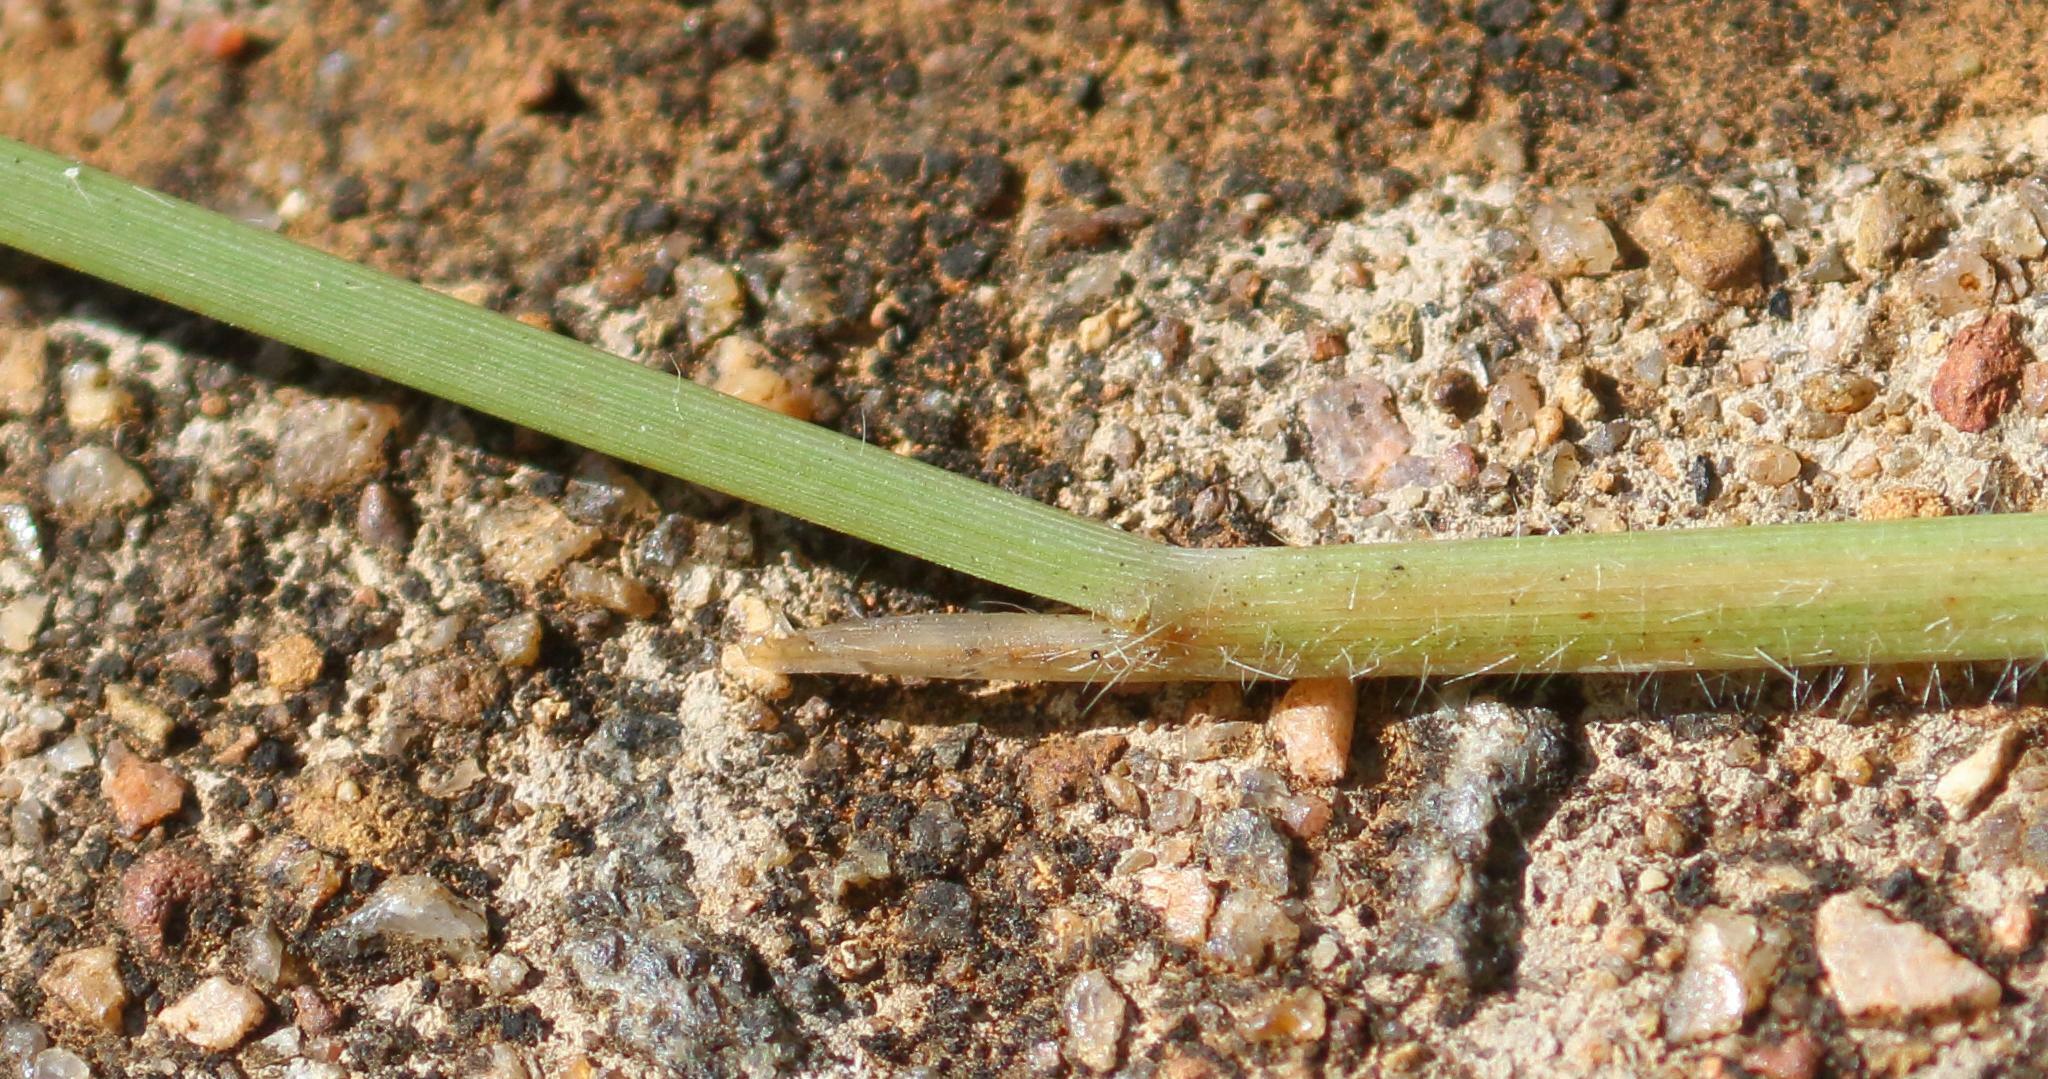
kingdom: Plantae
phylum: Tracheophyta
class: Liliopsida
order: Poales
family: Poaceae
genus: Digitaria
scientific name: Digitaria eriantha
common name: Digitgrass
